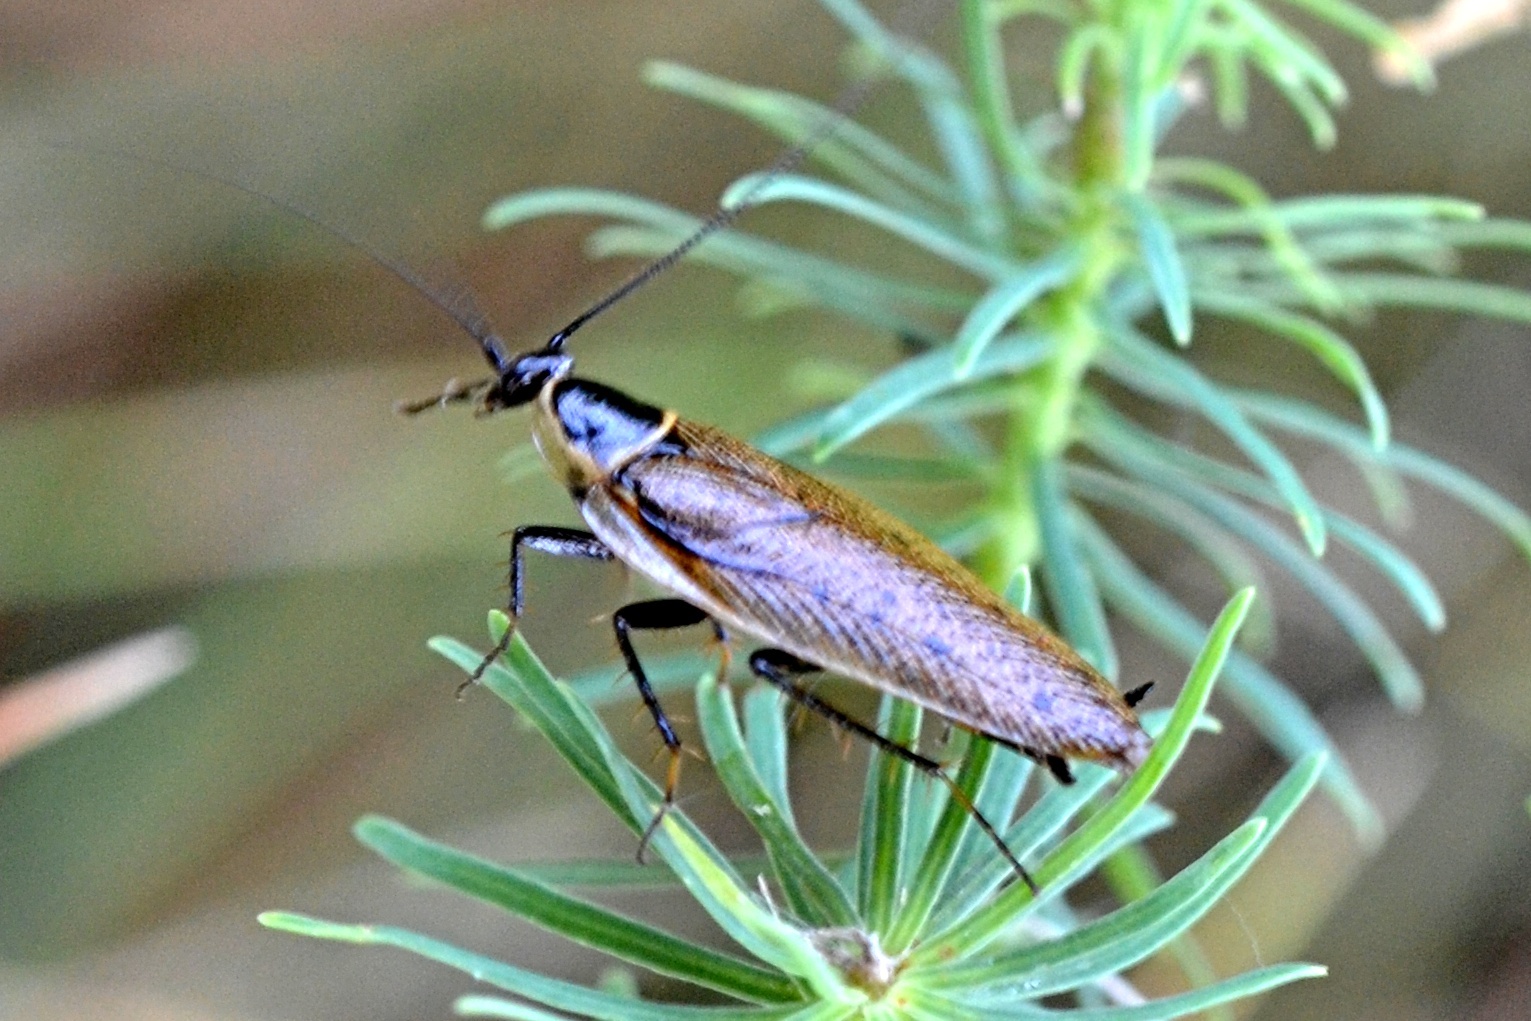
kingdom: Animalia
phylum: Arthropoda
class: Insecta
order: Blattodea
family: Ectobiidae
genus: Ectobius
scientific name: Ectobius sylvestris
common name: Forest cockroach
